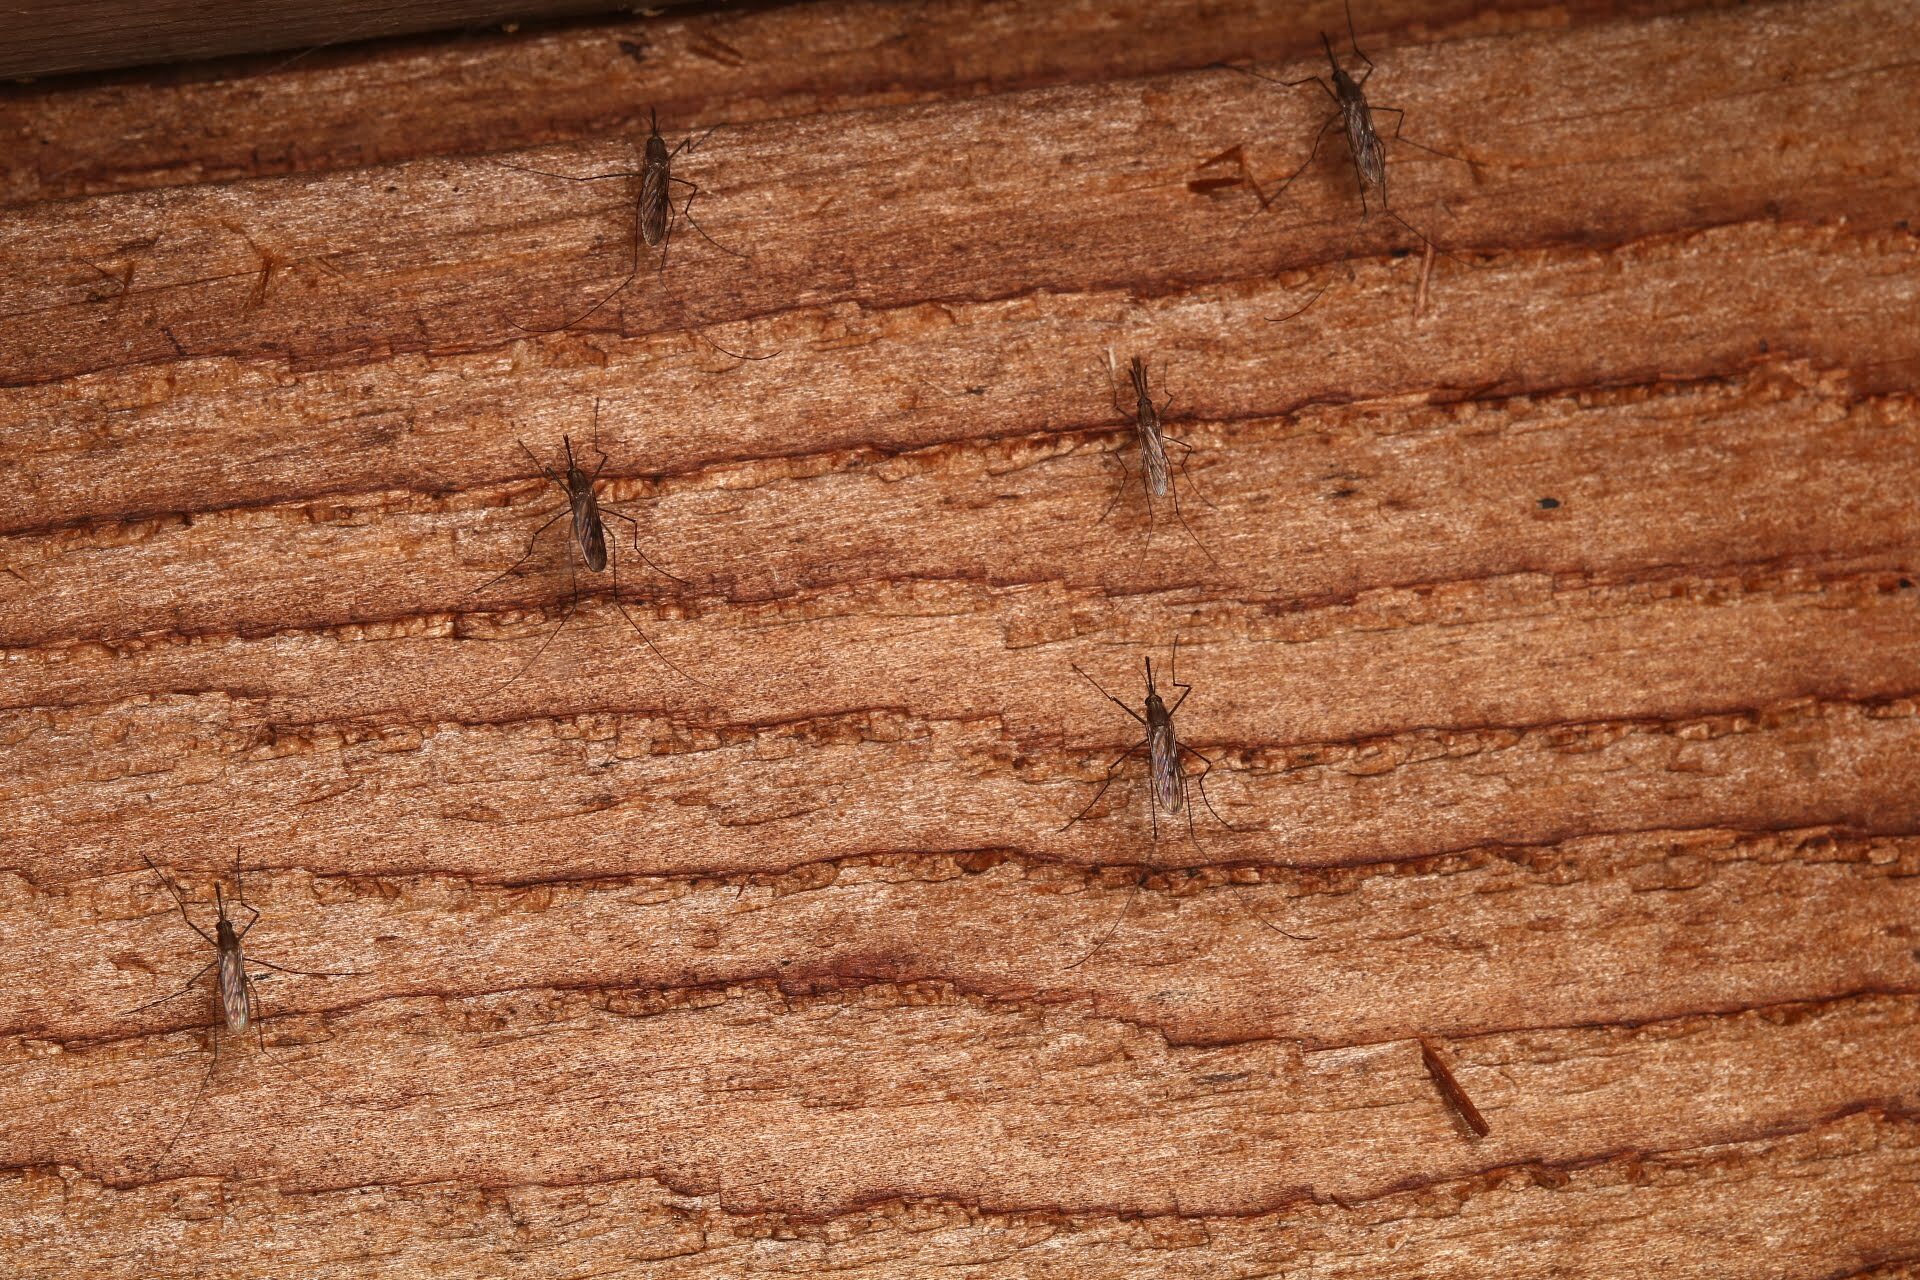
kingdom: Animalia
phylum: Arthropoda
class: Insecta
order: Diptera
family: Culicidae
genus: Anopheles
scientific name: Anopheles
